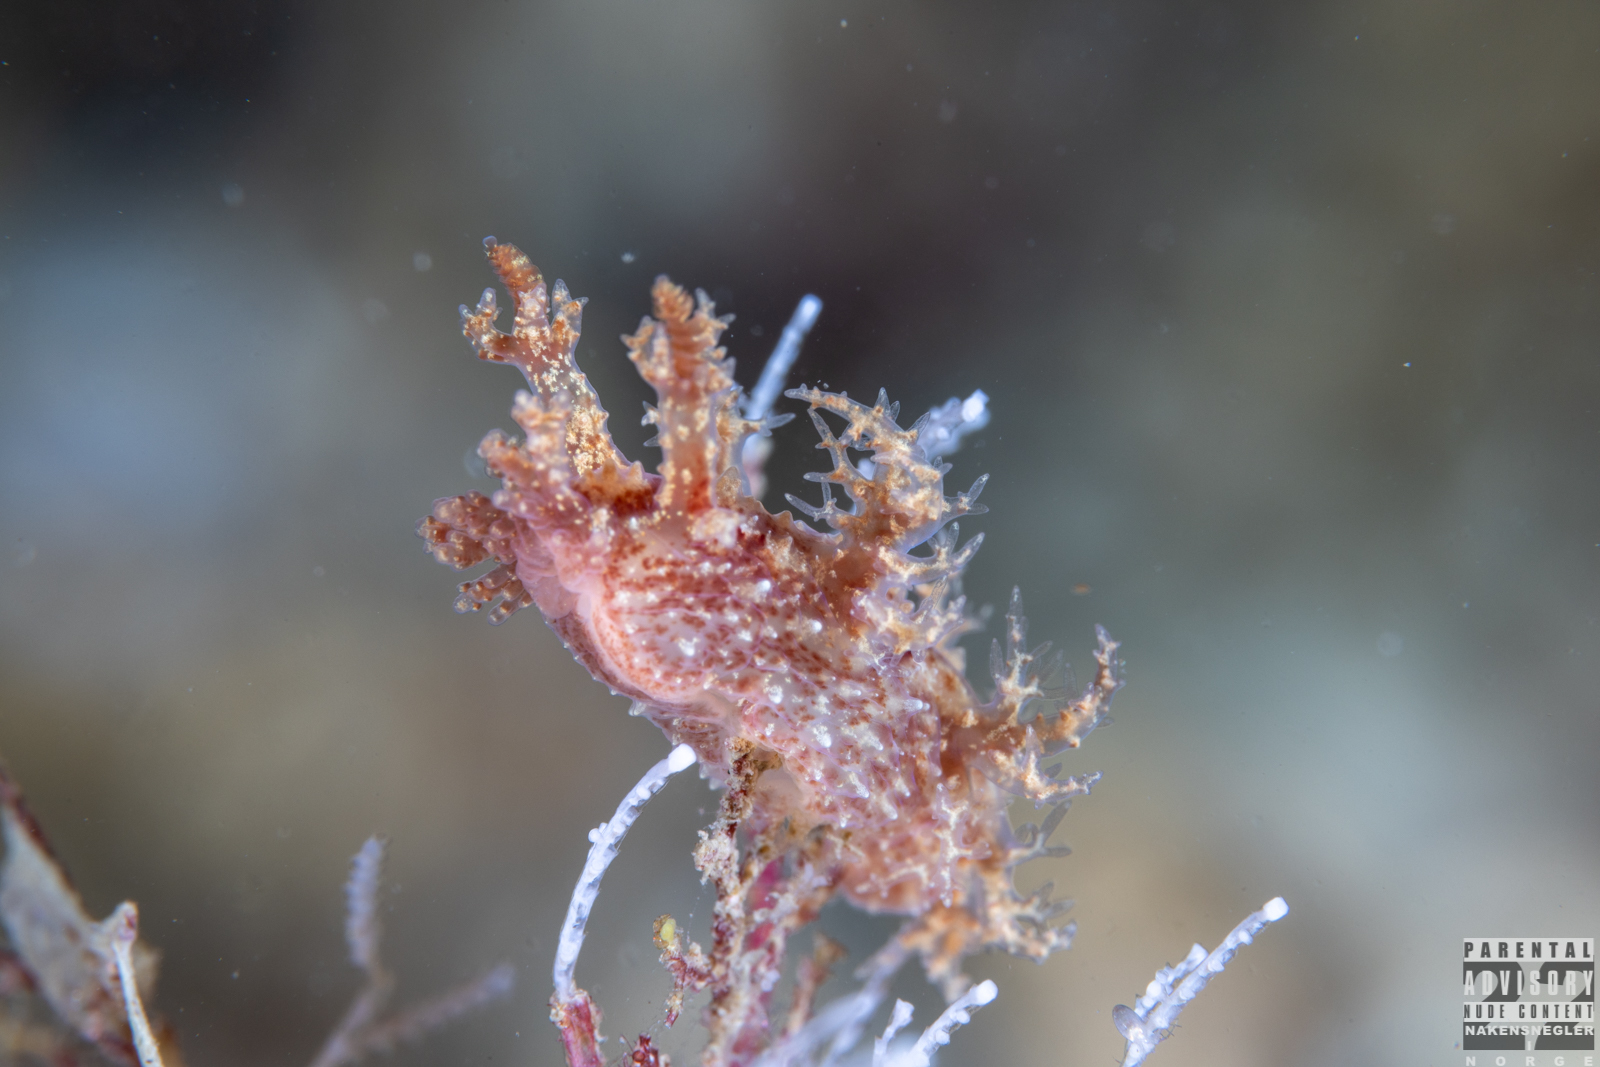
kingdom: Animalia
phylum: Mollusca
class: Gastropoda
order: Nudibranchia
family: Dendronotidae
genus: Dendronotus
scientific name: Dendronotus frondosus
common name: Bushy-backed nudibranch
